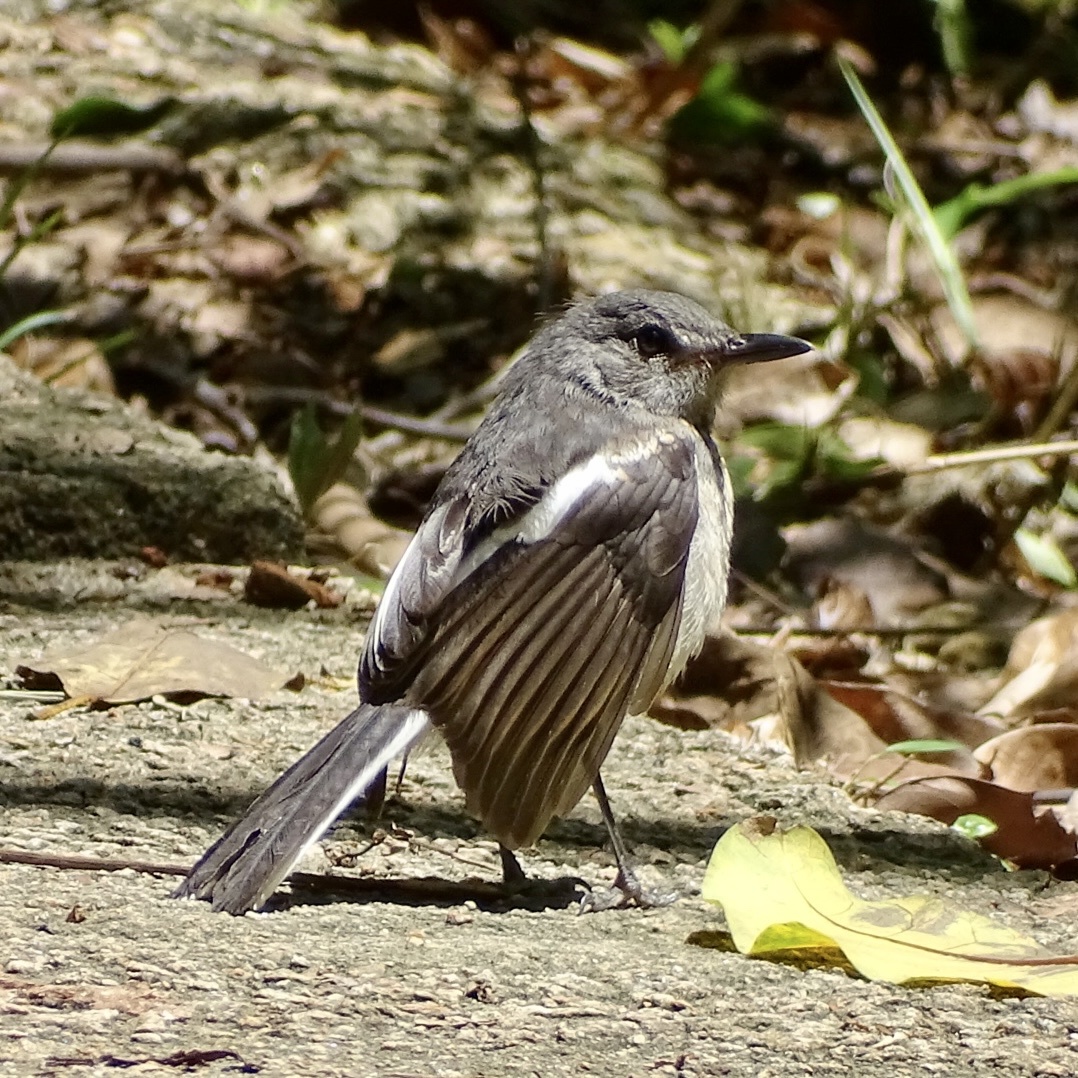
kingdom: Animalia
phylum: Chordata
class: Aves
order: Passeriformes
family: Muscicapidae
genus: Copsychus
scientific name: Copsychus saularis
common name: Oriental magpie-robin
